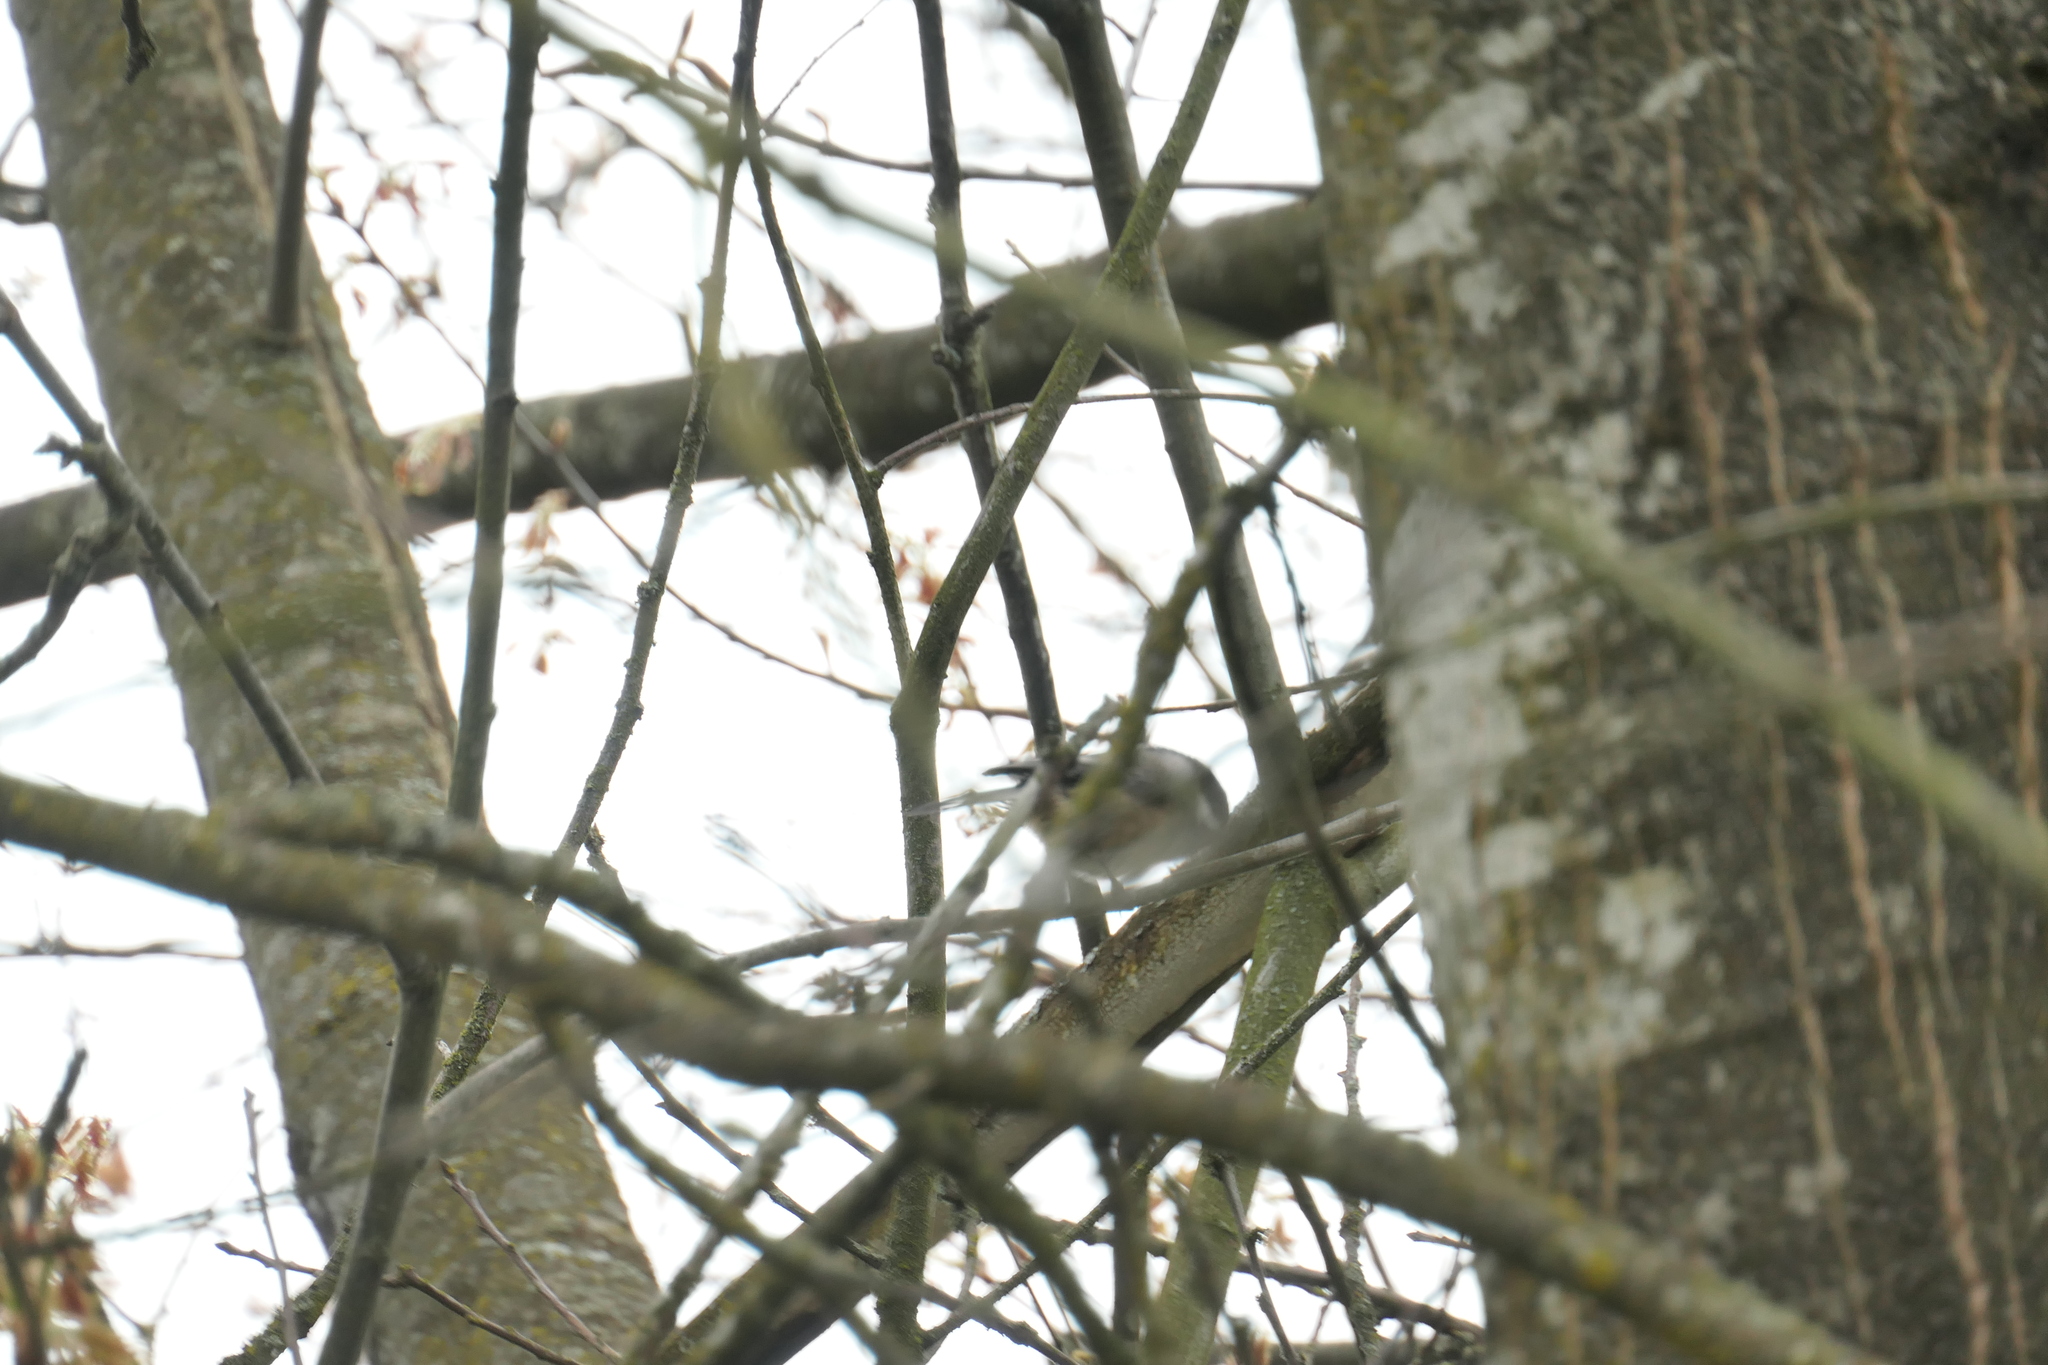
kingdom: Animalia
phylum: Chordata
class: Aves
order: Passeriformes
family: Paridae
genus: Poecile
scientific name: Poecile atricapillus
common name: Black-capped chickadee
